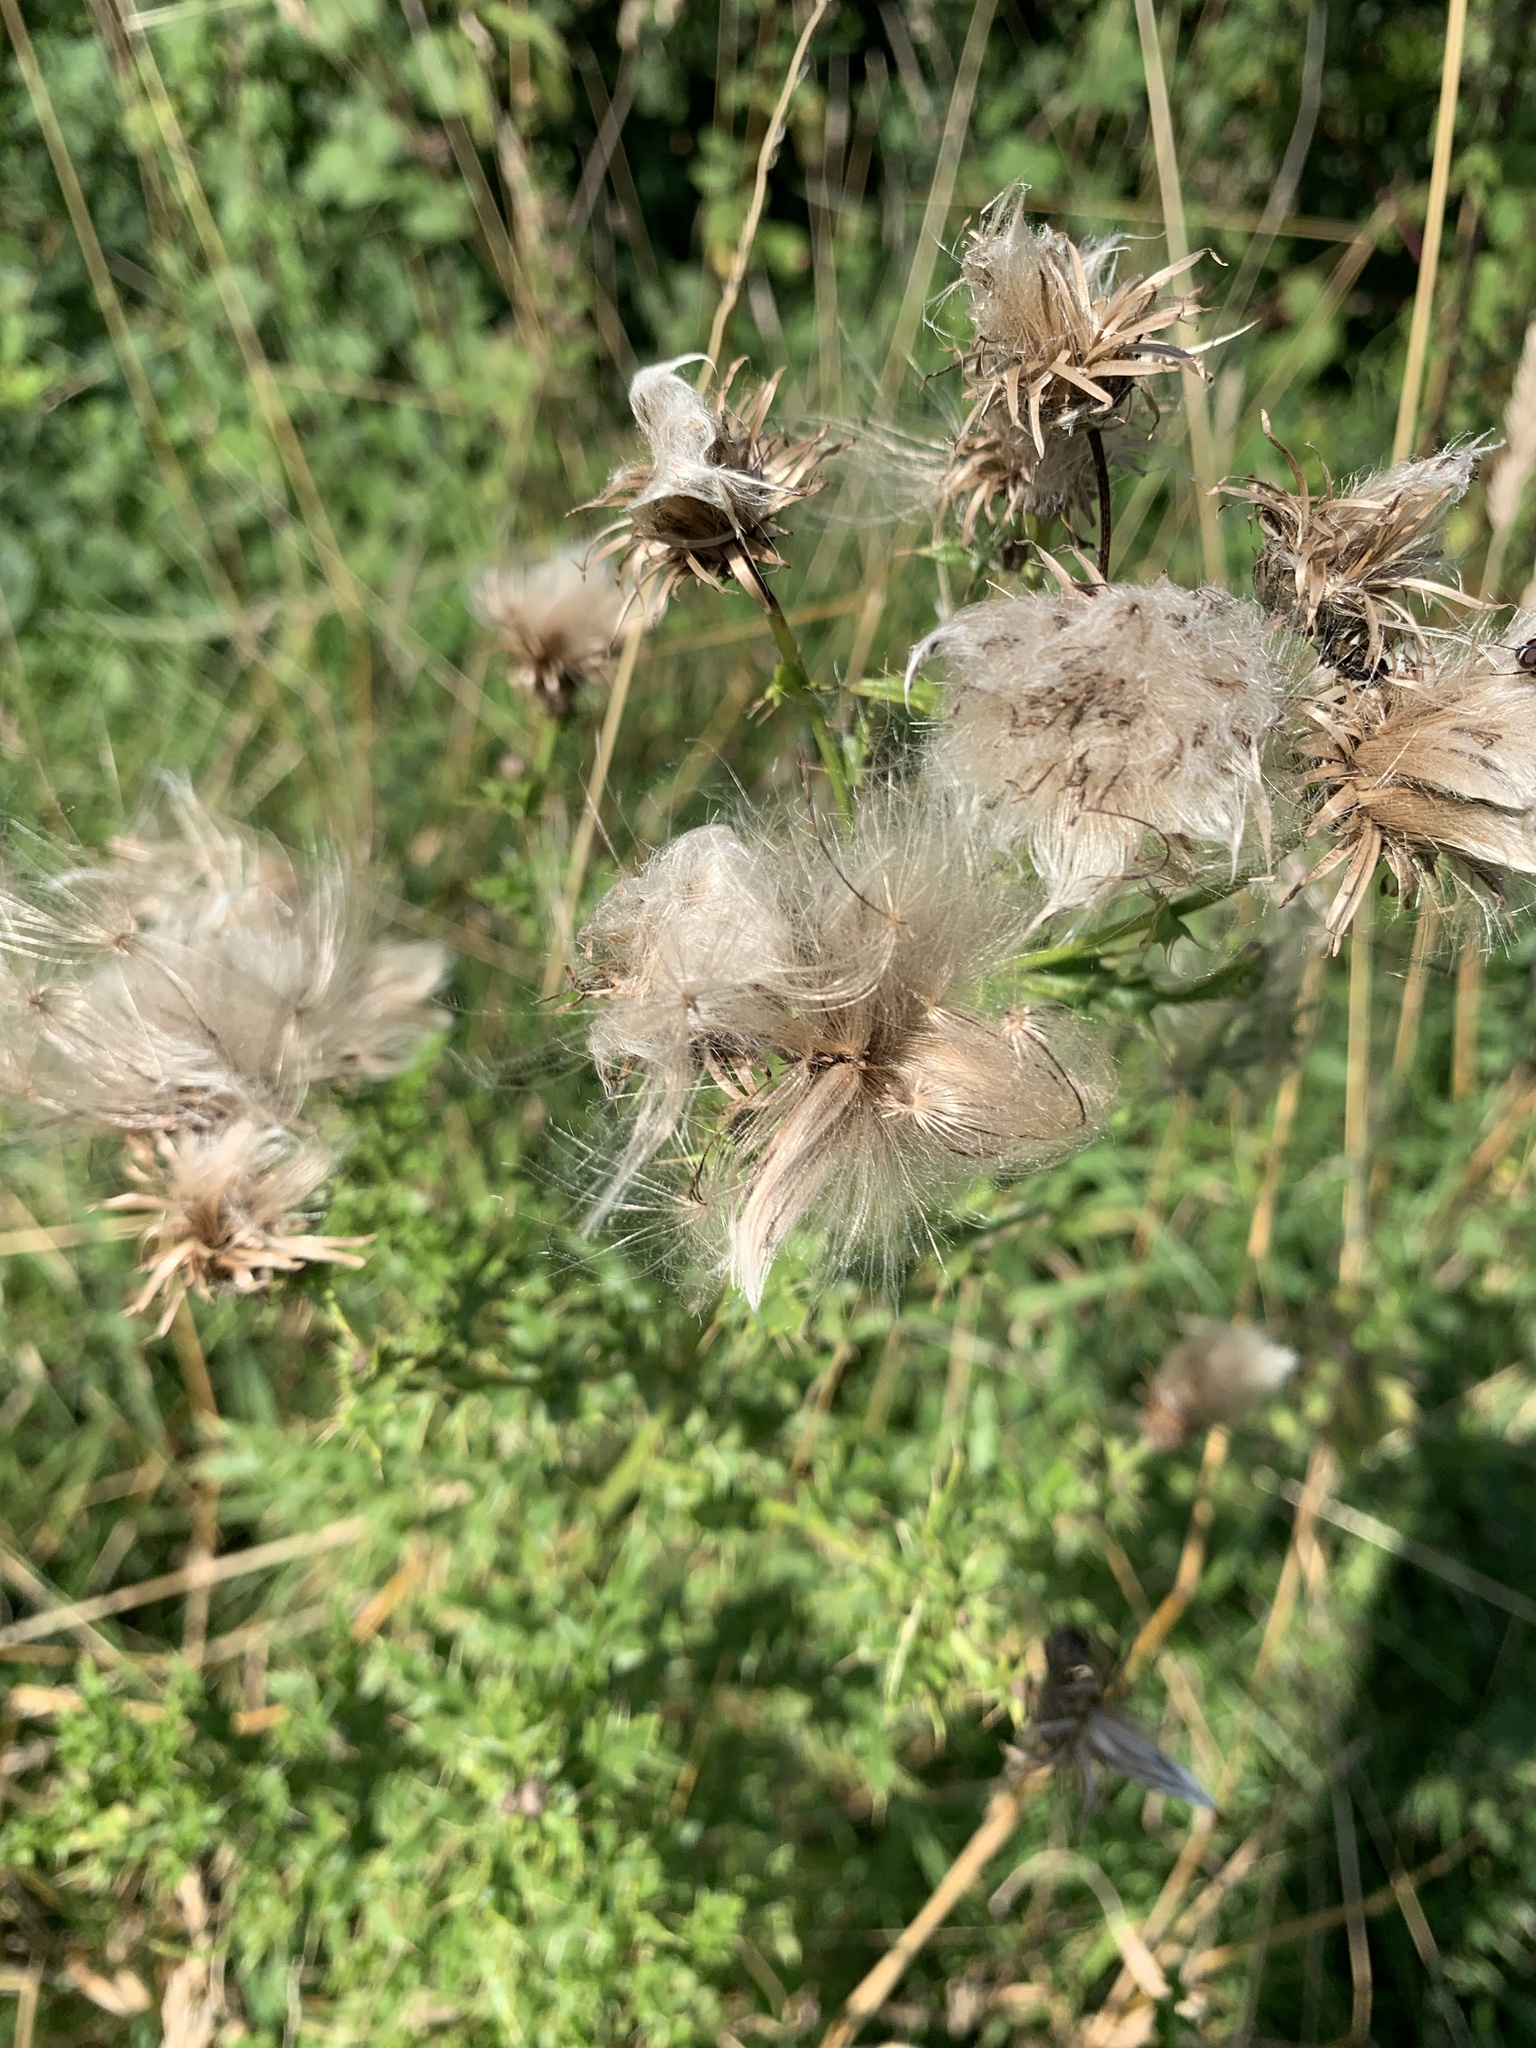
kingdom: Plantae
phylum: Tracheophyta
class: Magnoliopsida
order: Asterales
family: Asteraceae
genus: Cirsium
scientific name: Cirsium arvense
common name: Creeping thistle
